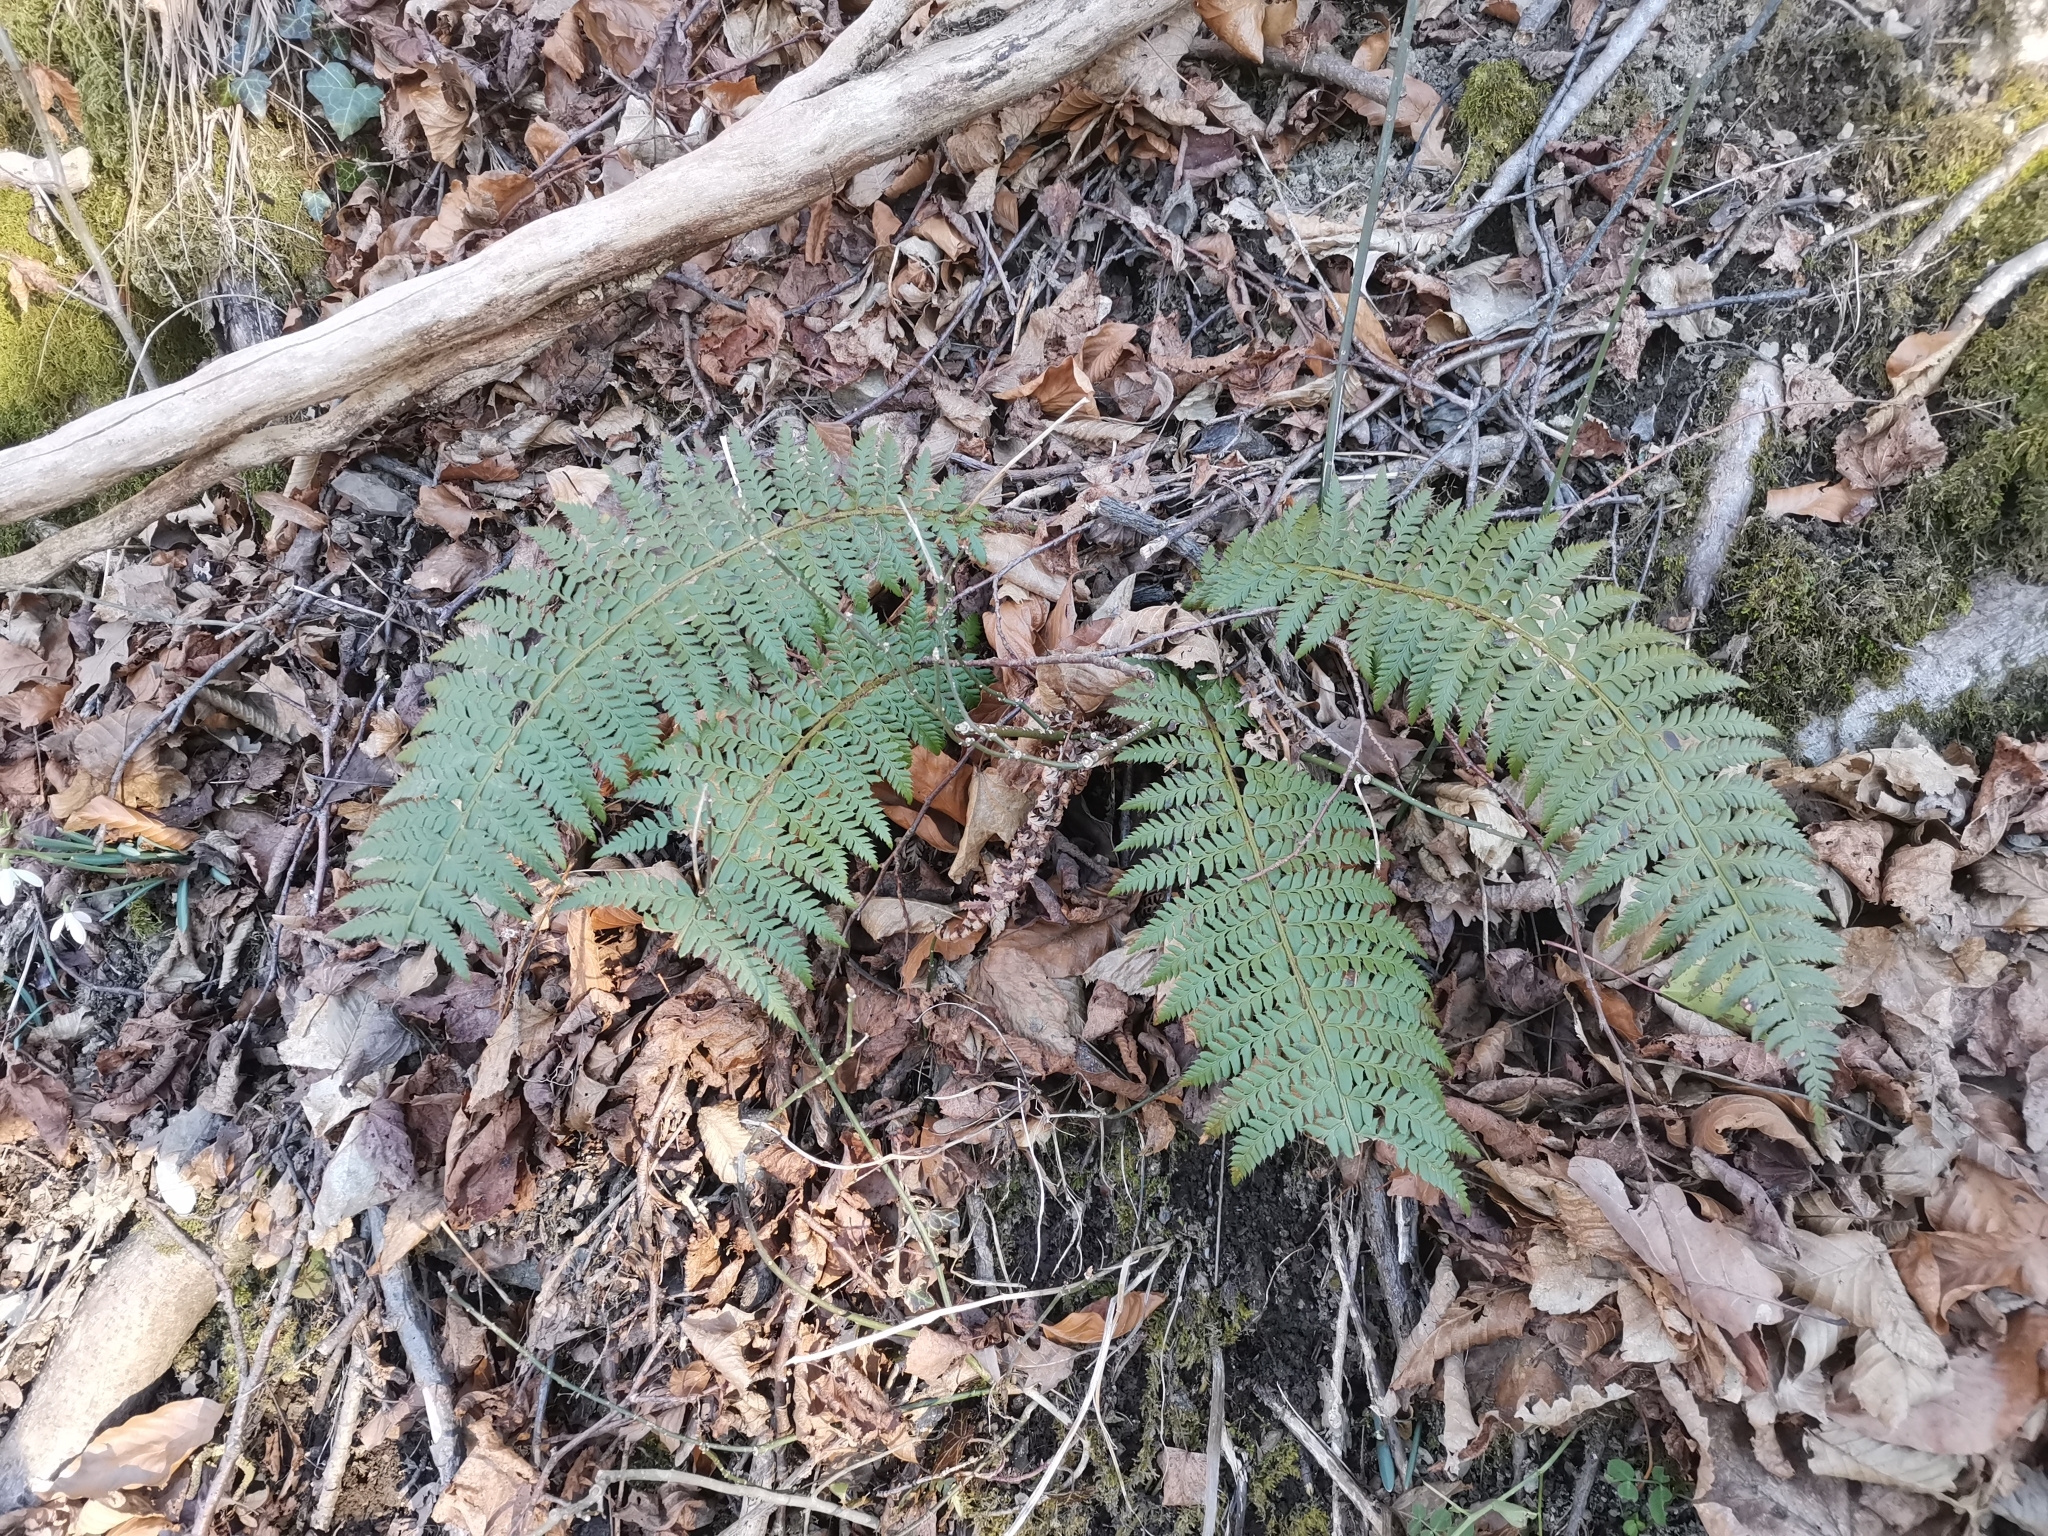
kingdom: Plantae
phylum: Tracheophyta
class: Polypodiopsida
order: Polypodiales
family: Dryopteridaceae
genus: Polystichum
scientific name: Polystichum aculeatum
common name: Hard shield-fern
